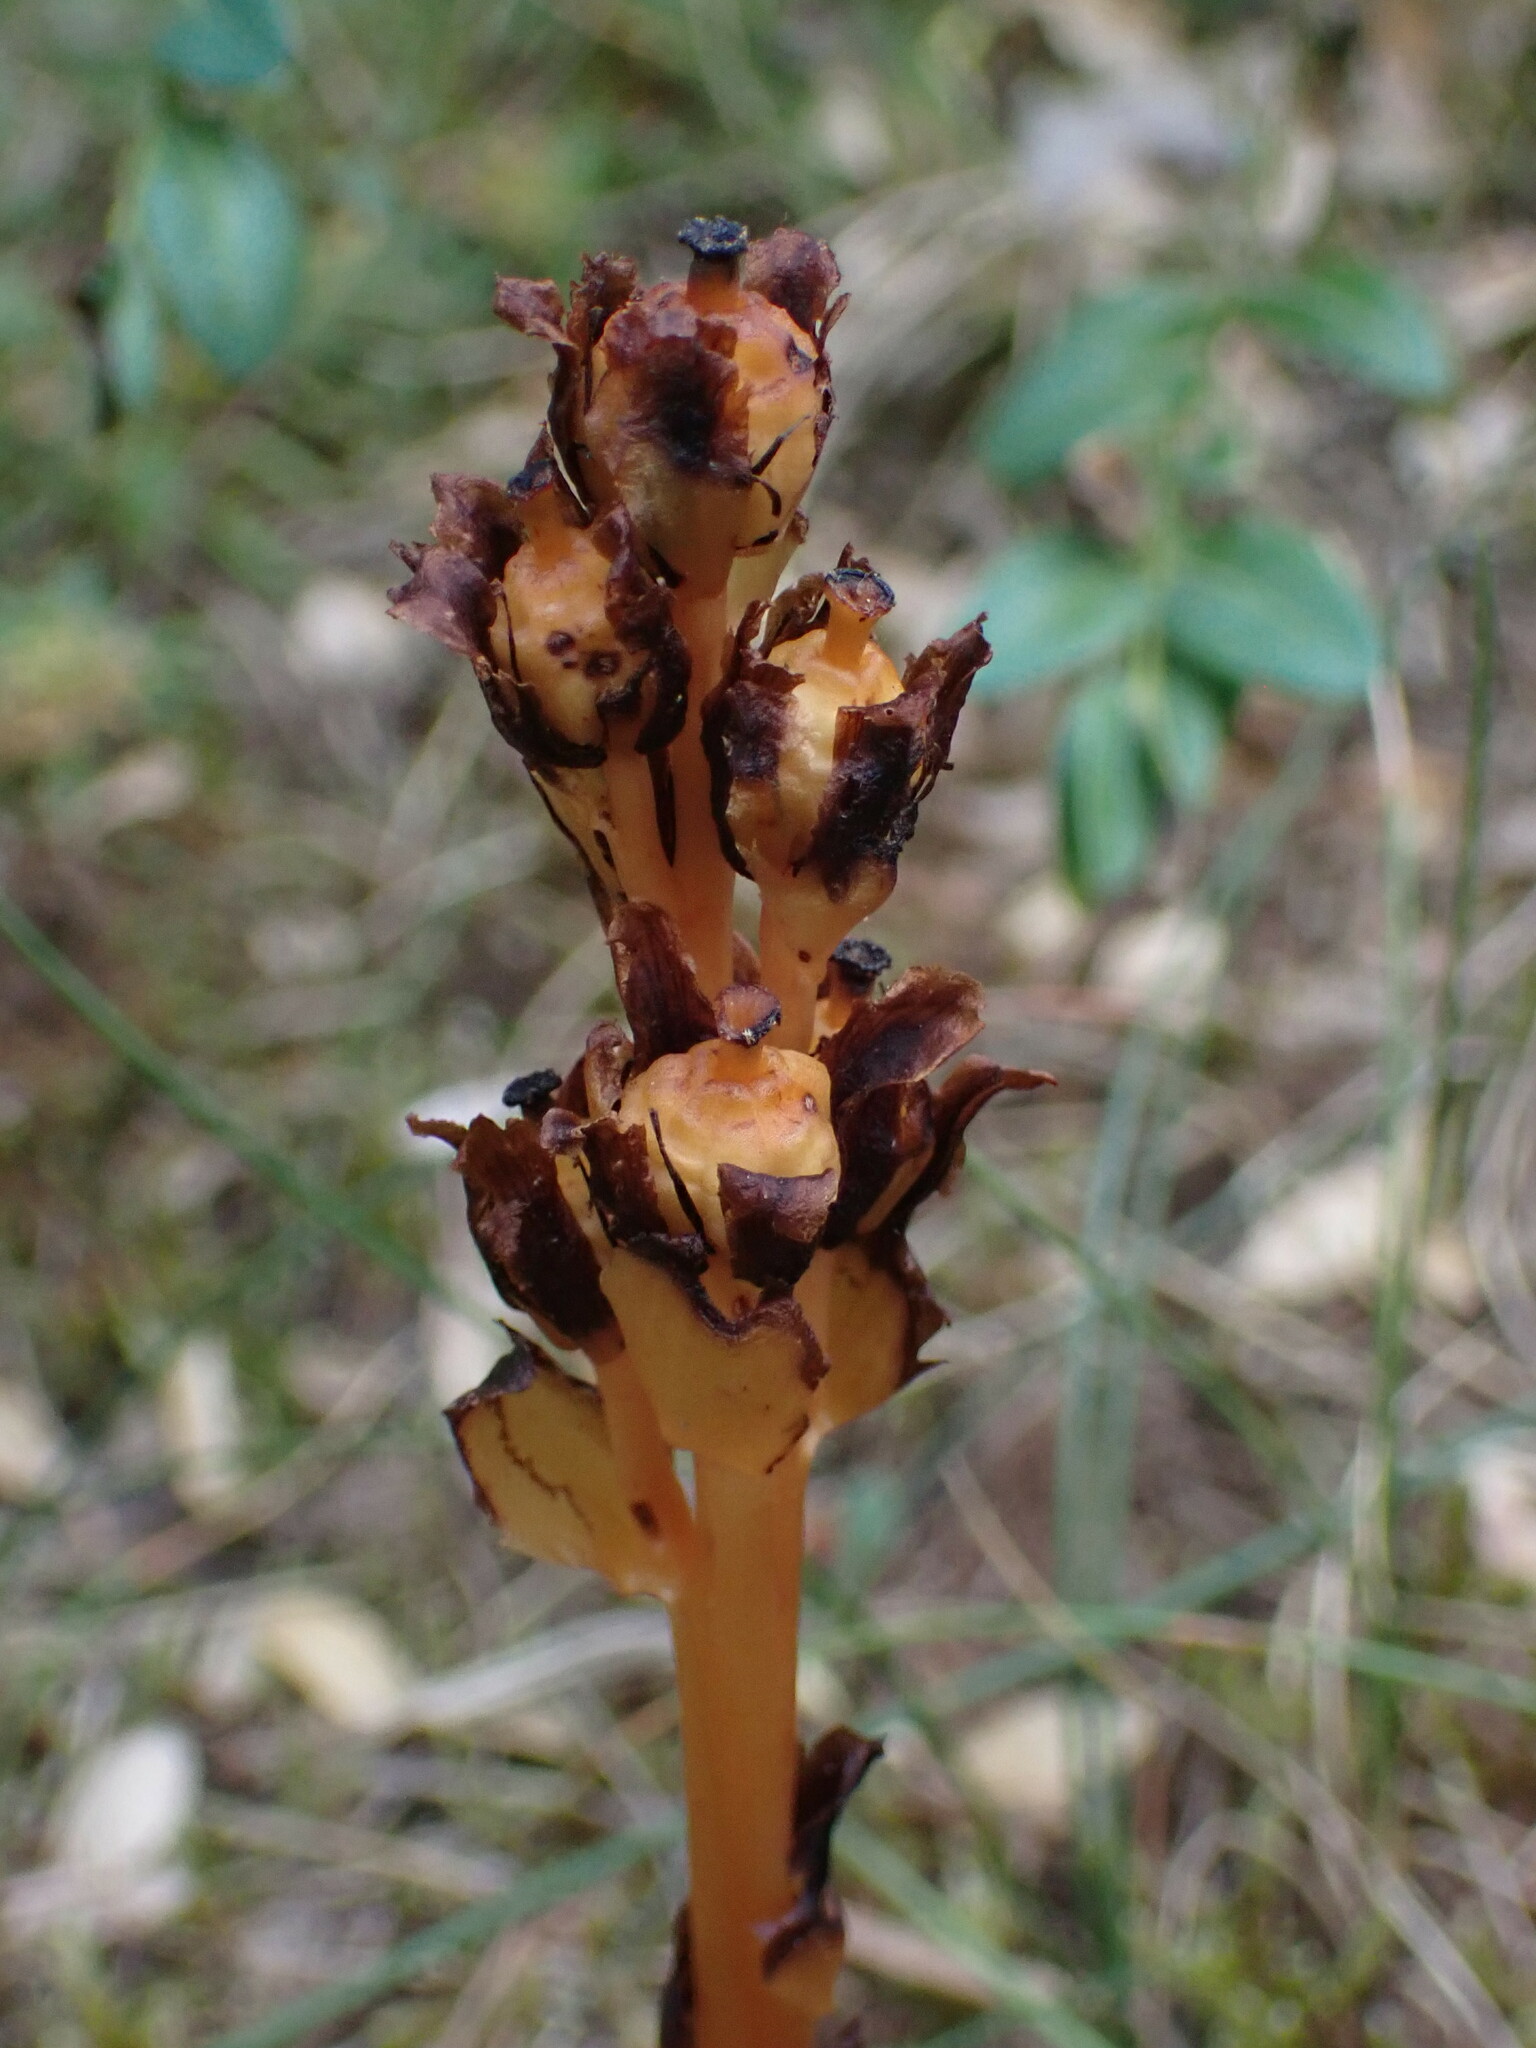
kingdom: Plantae
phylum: Tracheophyta
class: Magnoliopsida
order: Ericales
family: Ericaceae
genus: Hypopitys
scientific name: Hypopitys monotropa
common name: Yellow bird's-nest
